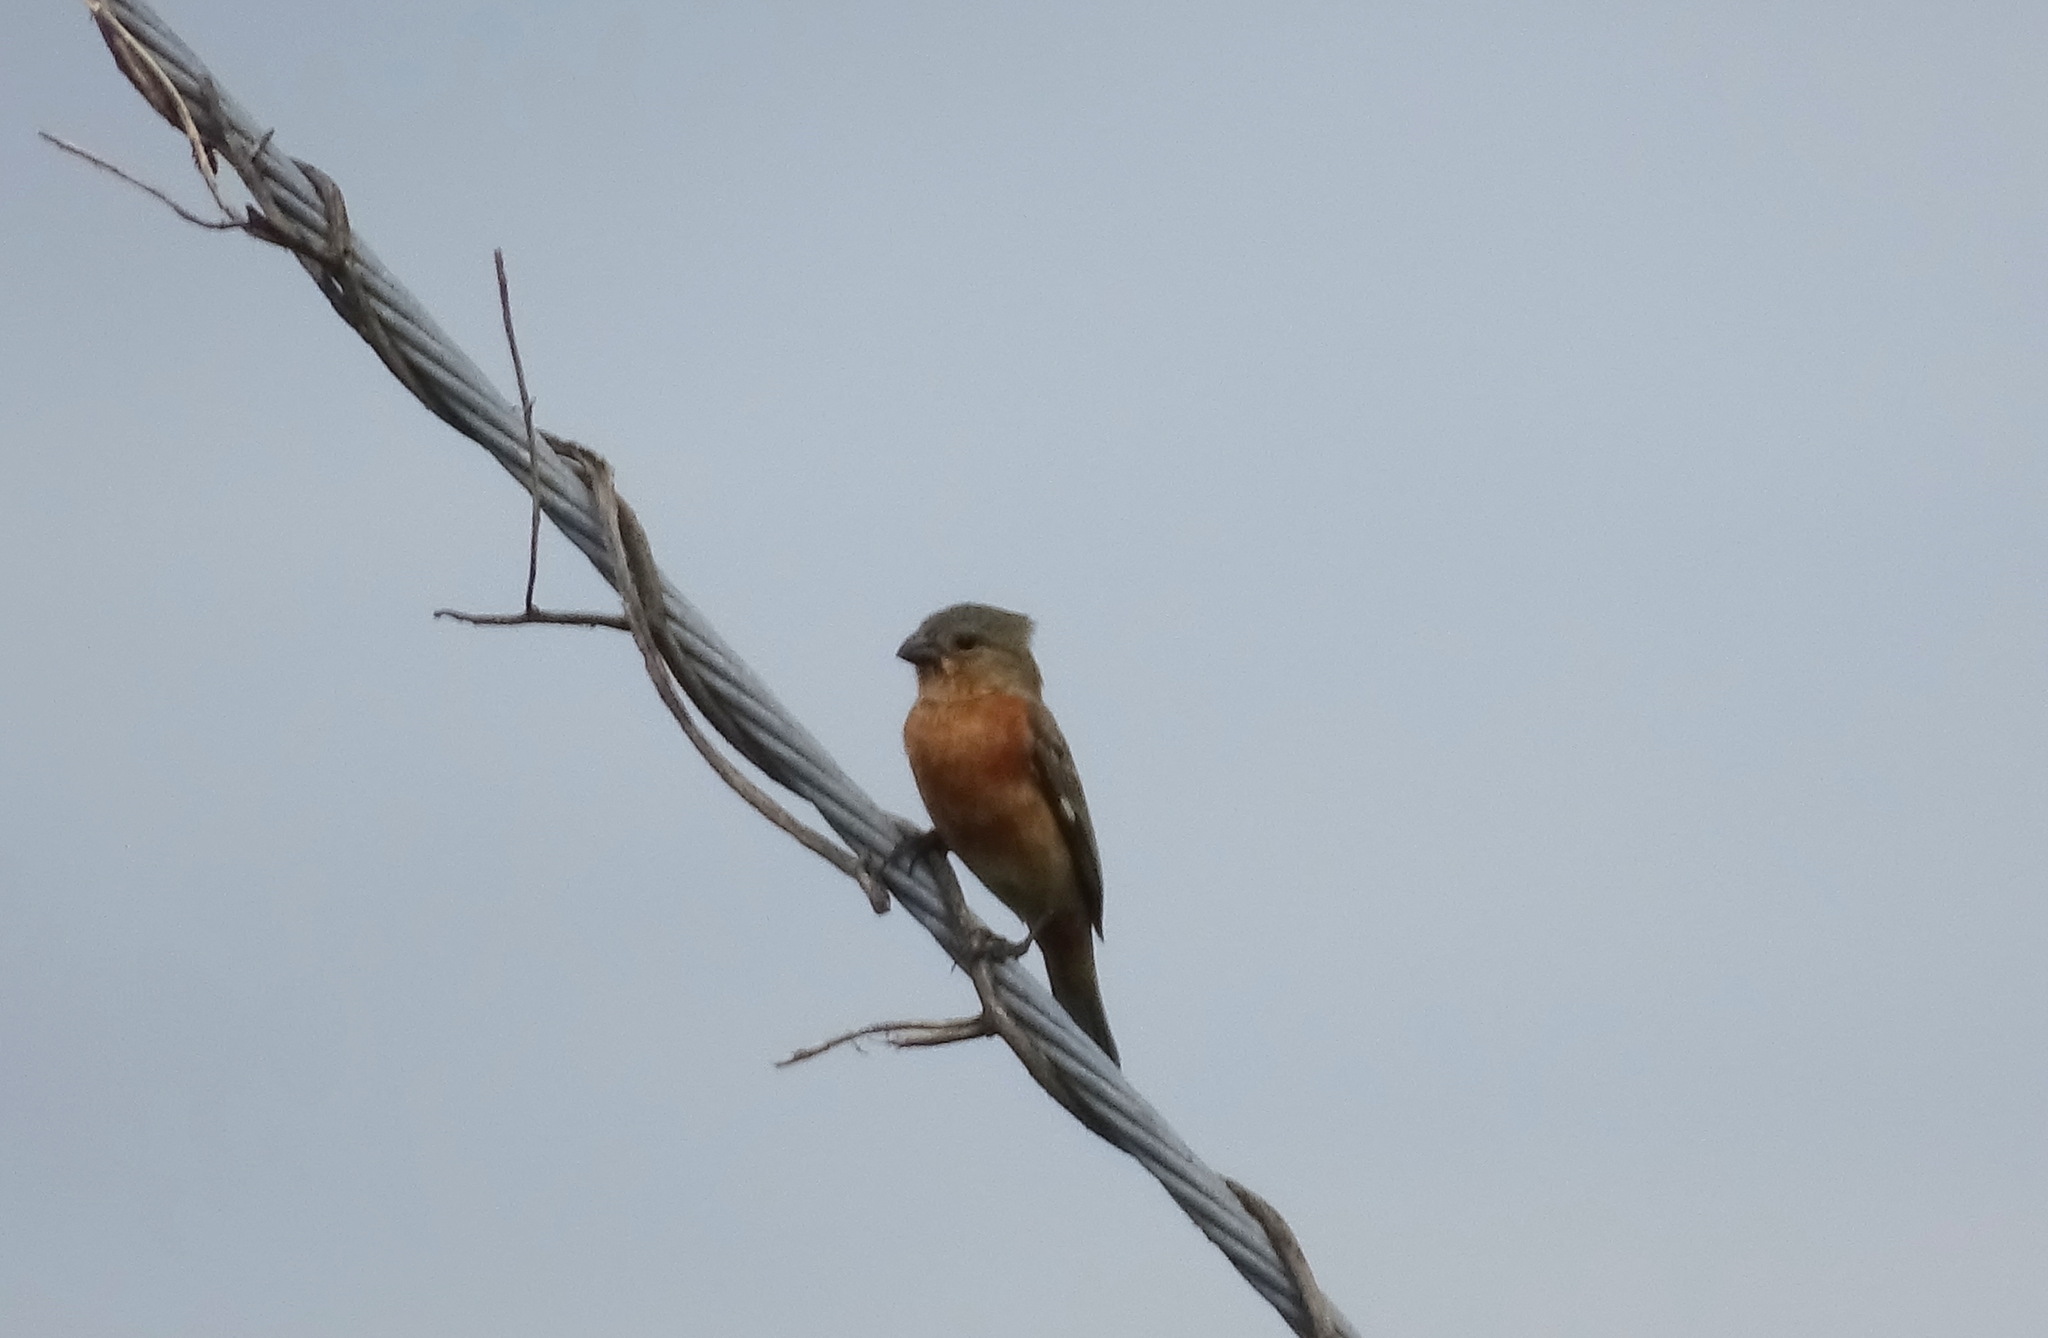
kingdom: Animalia
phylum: Chordata
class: Aves
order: Passeriformes
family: Thraupidae
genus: Sporophila
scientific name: Sporophila minuta
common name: Ruddy-breasted seedeater
